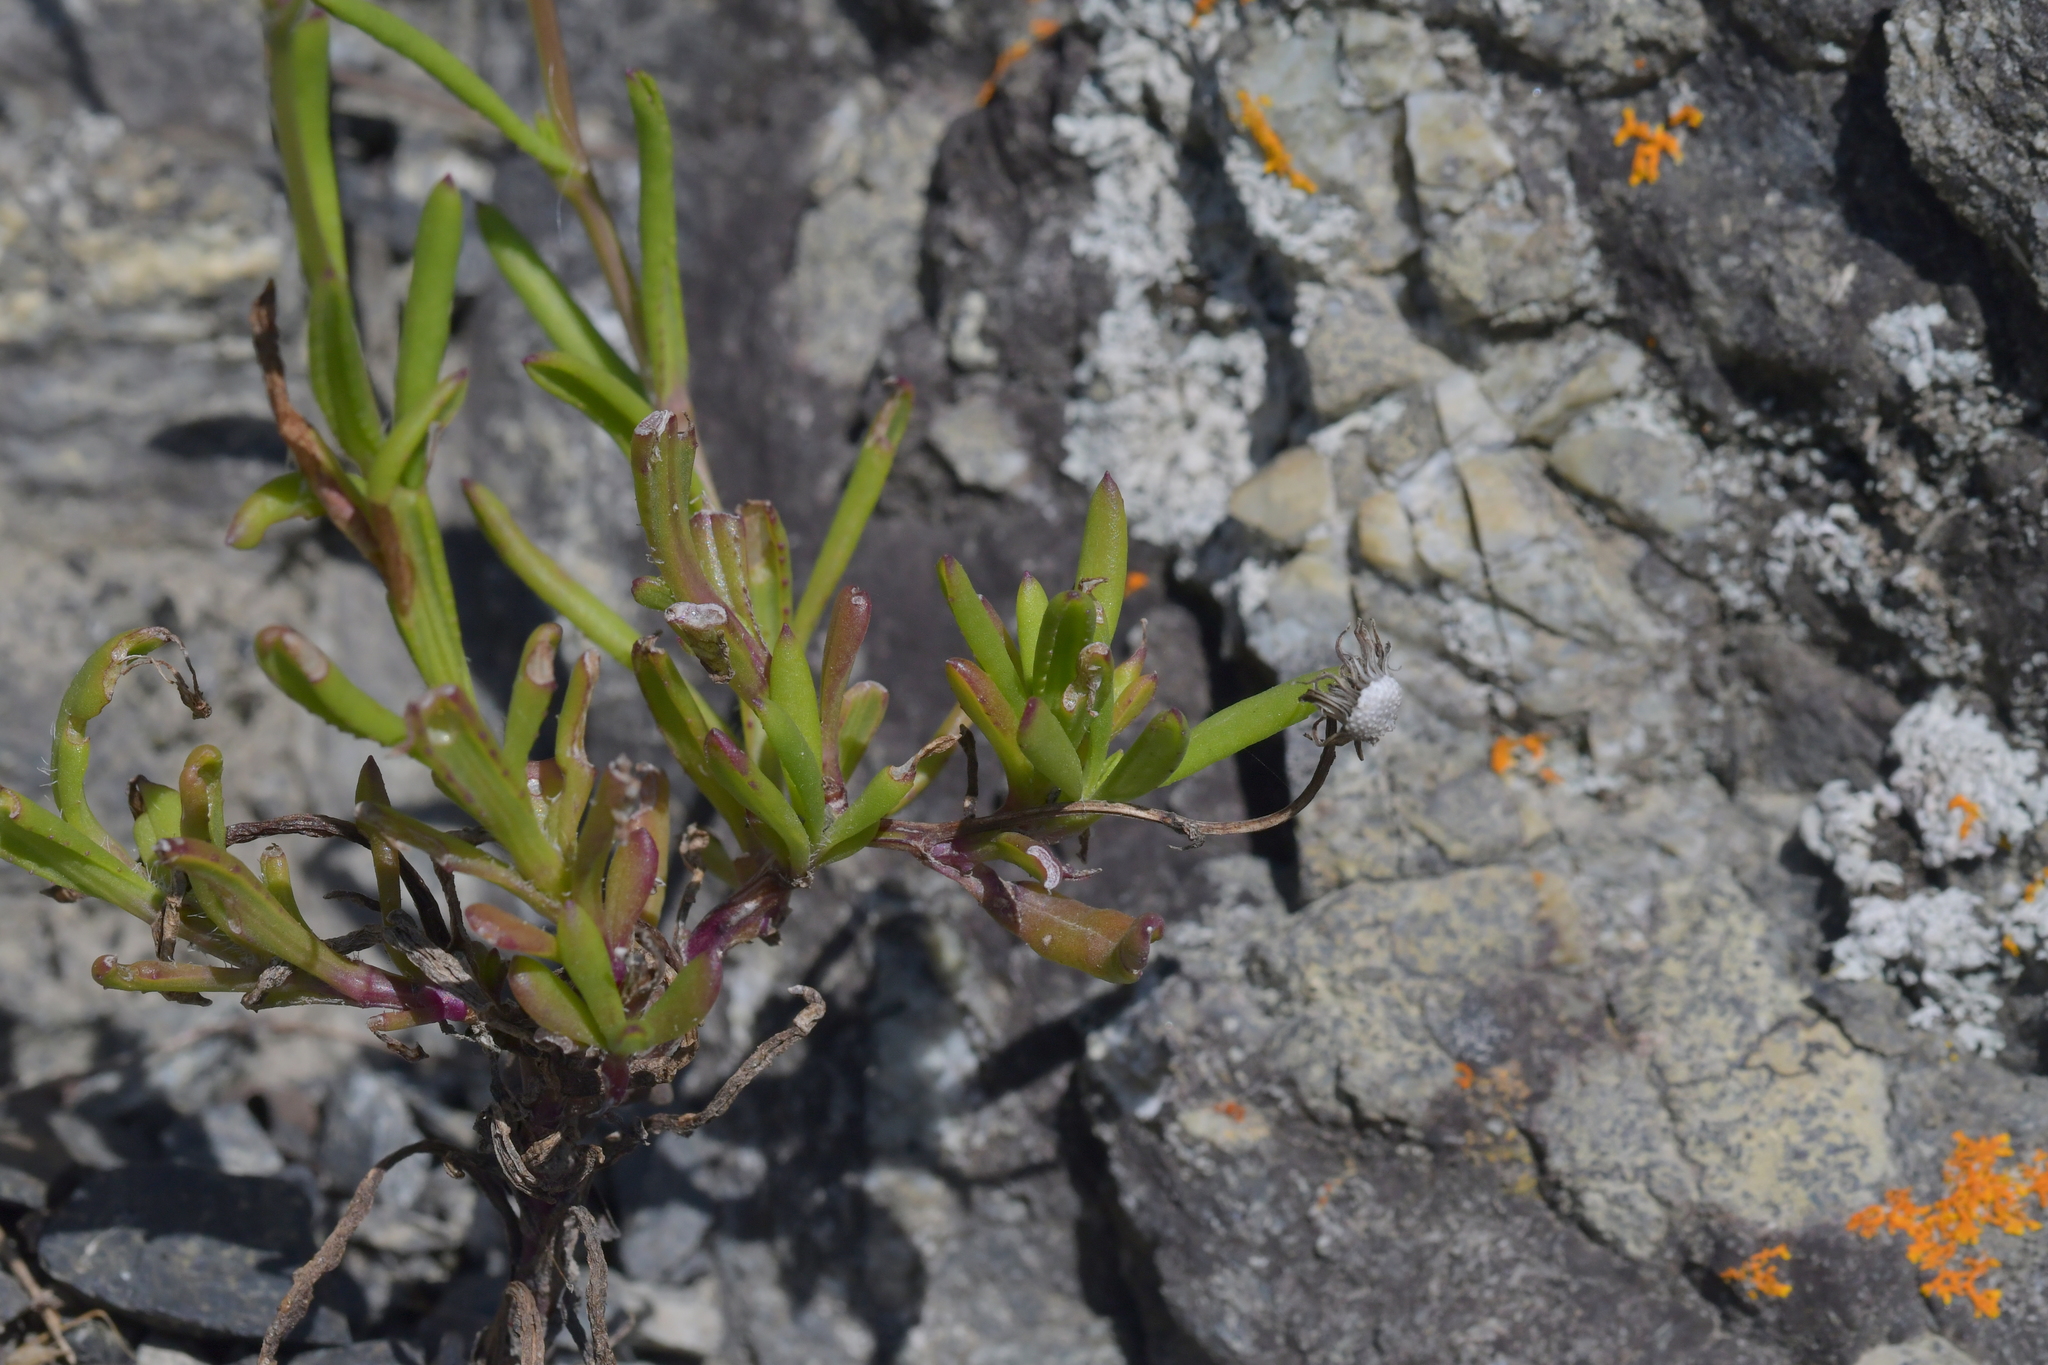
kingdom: Plantae
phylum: Tracheophyta
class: Magnoliopsida
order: Asterales
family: Asteraceae
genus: Senecio
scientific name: Senecio skirrhodon
